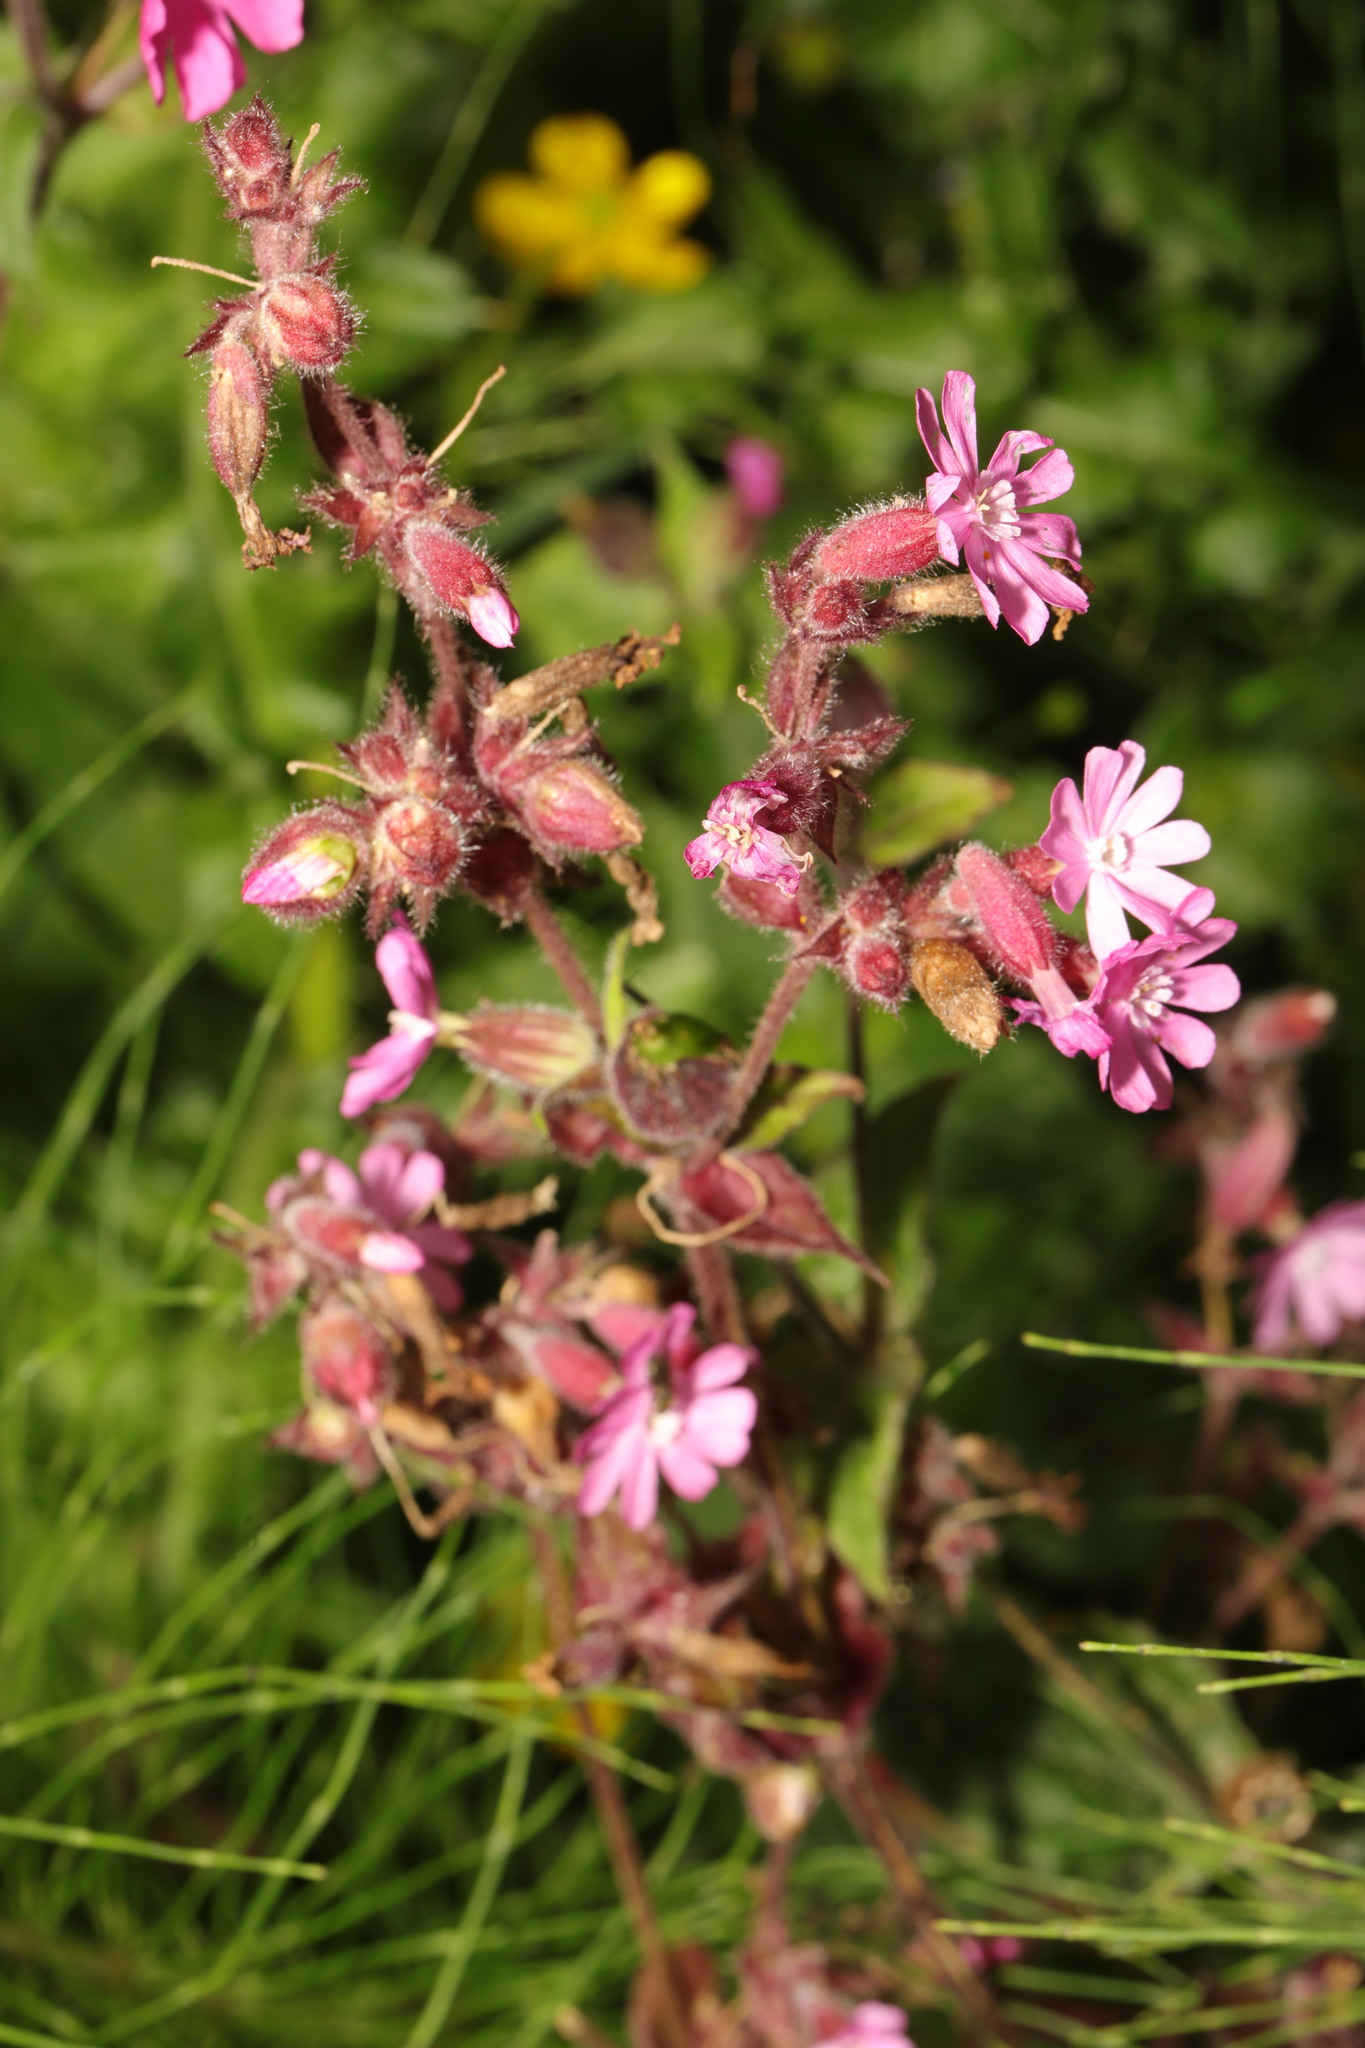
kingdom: Plantae
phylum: Tracheophyta
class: Magnoliopsida
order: Caryophyllales
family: Caryophyllaceae
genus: Silene
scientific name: Silene dioica
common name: Red campion
